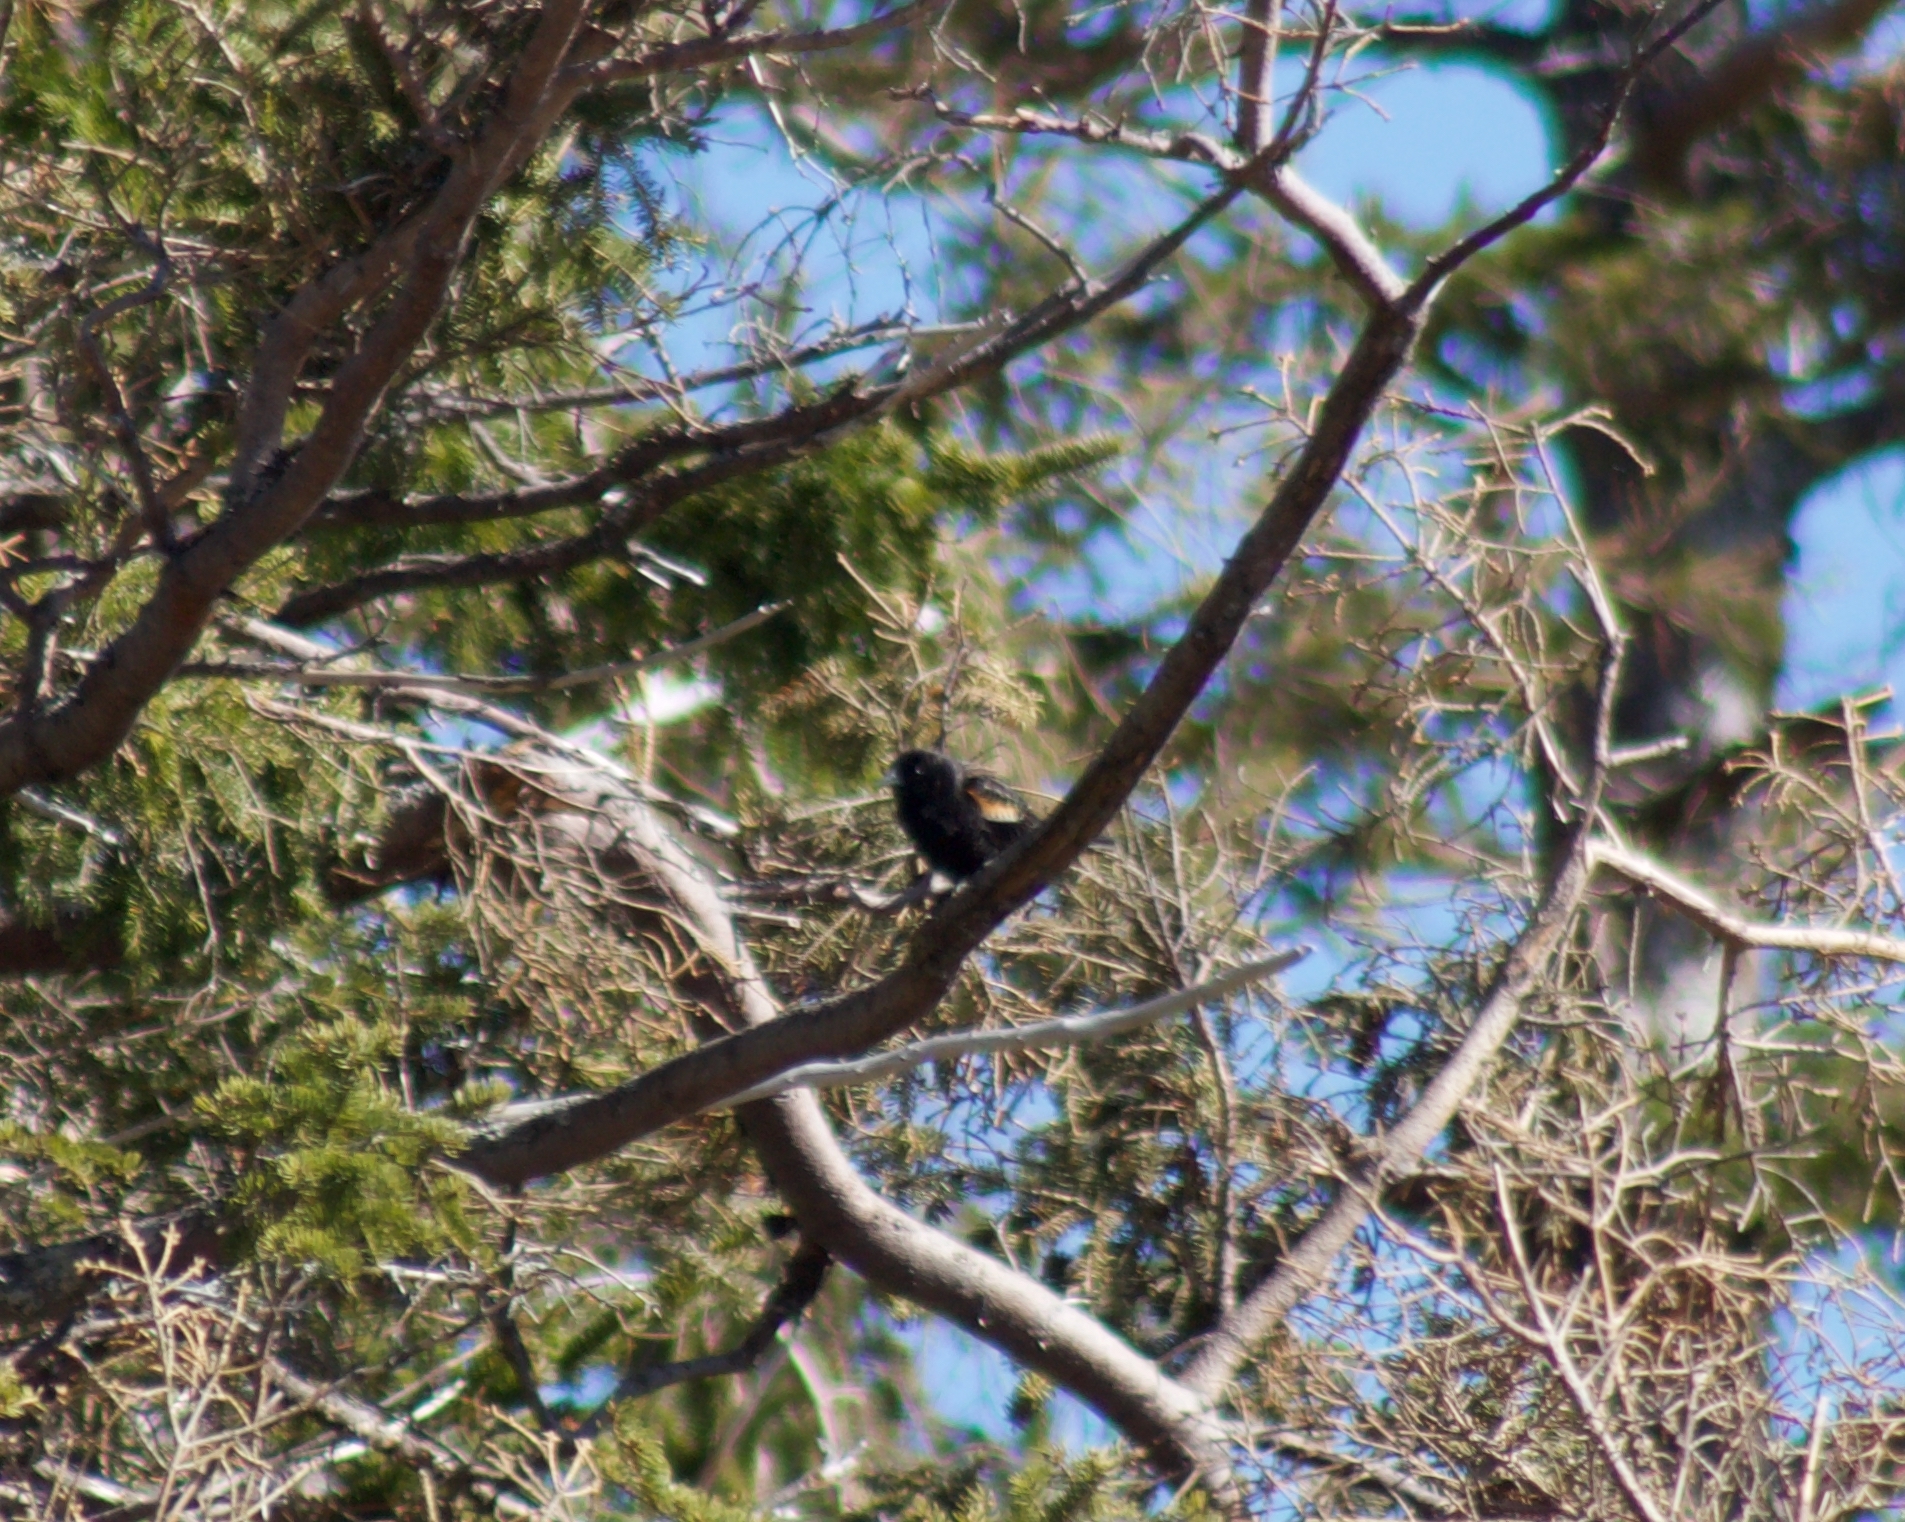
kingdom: Animalia
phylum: Chordata
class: Aves
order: Passeriformes
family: Icteridae
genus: Agelaius
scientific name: Agelaius phoeniceus
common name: Red-winged blackbird
